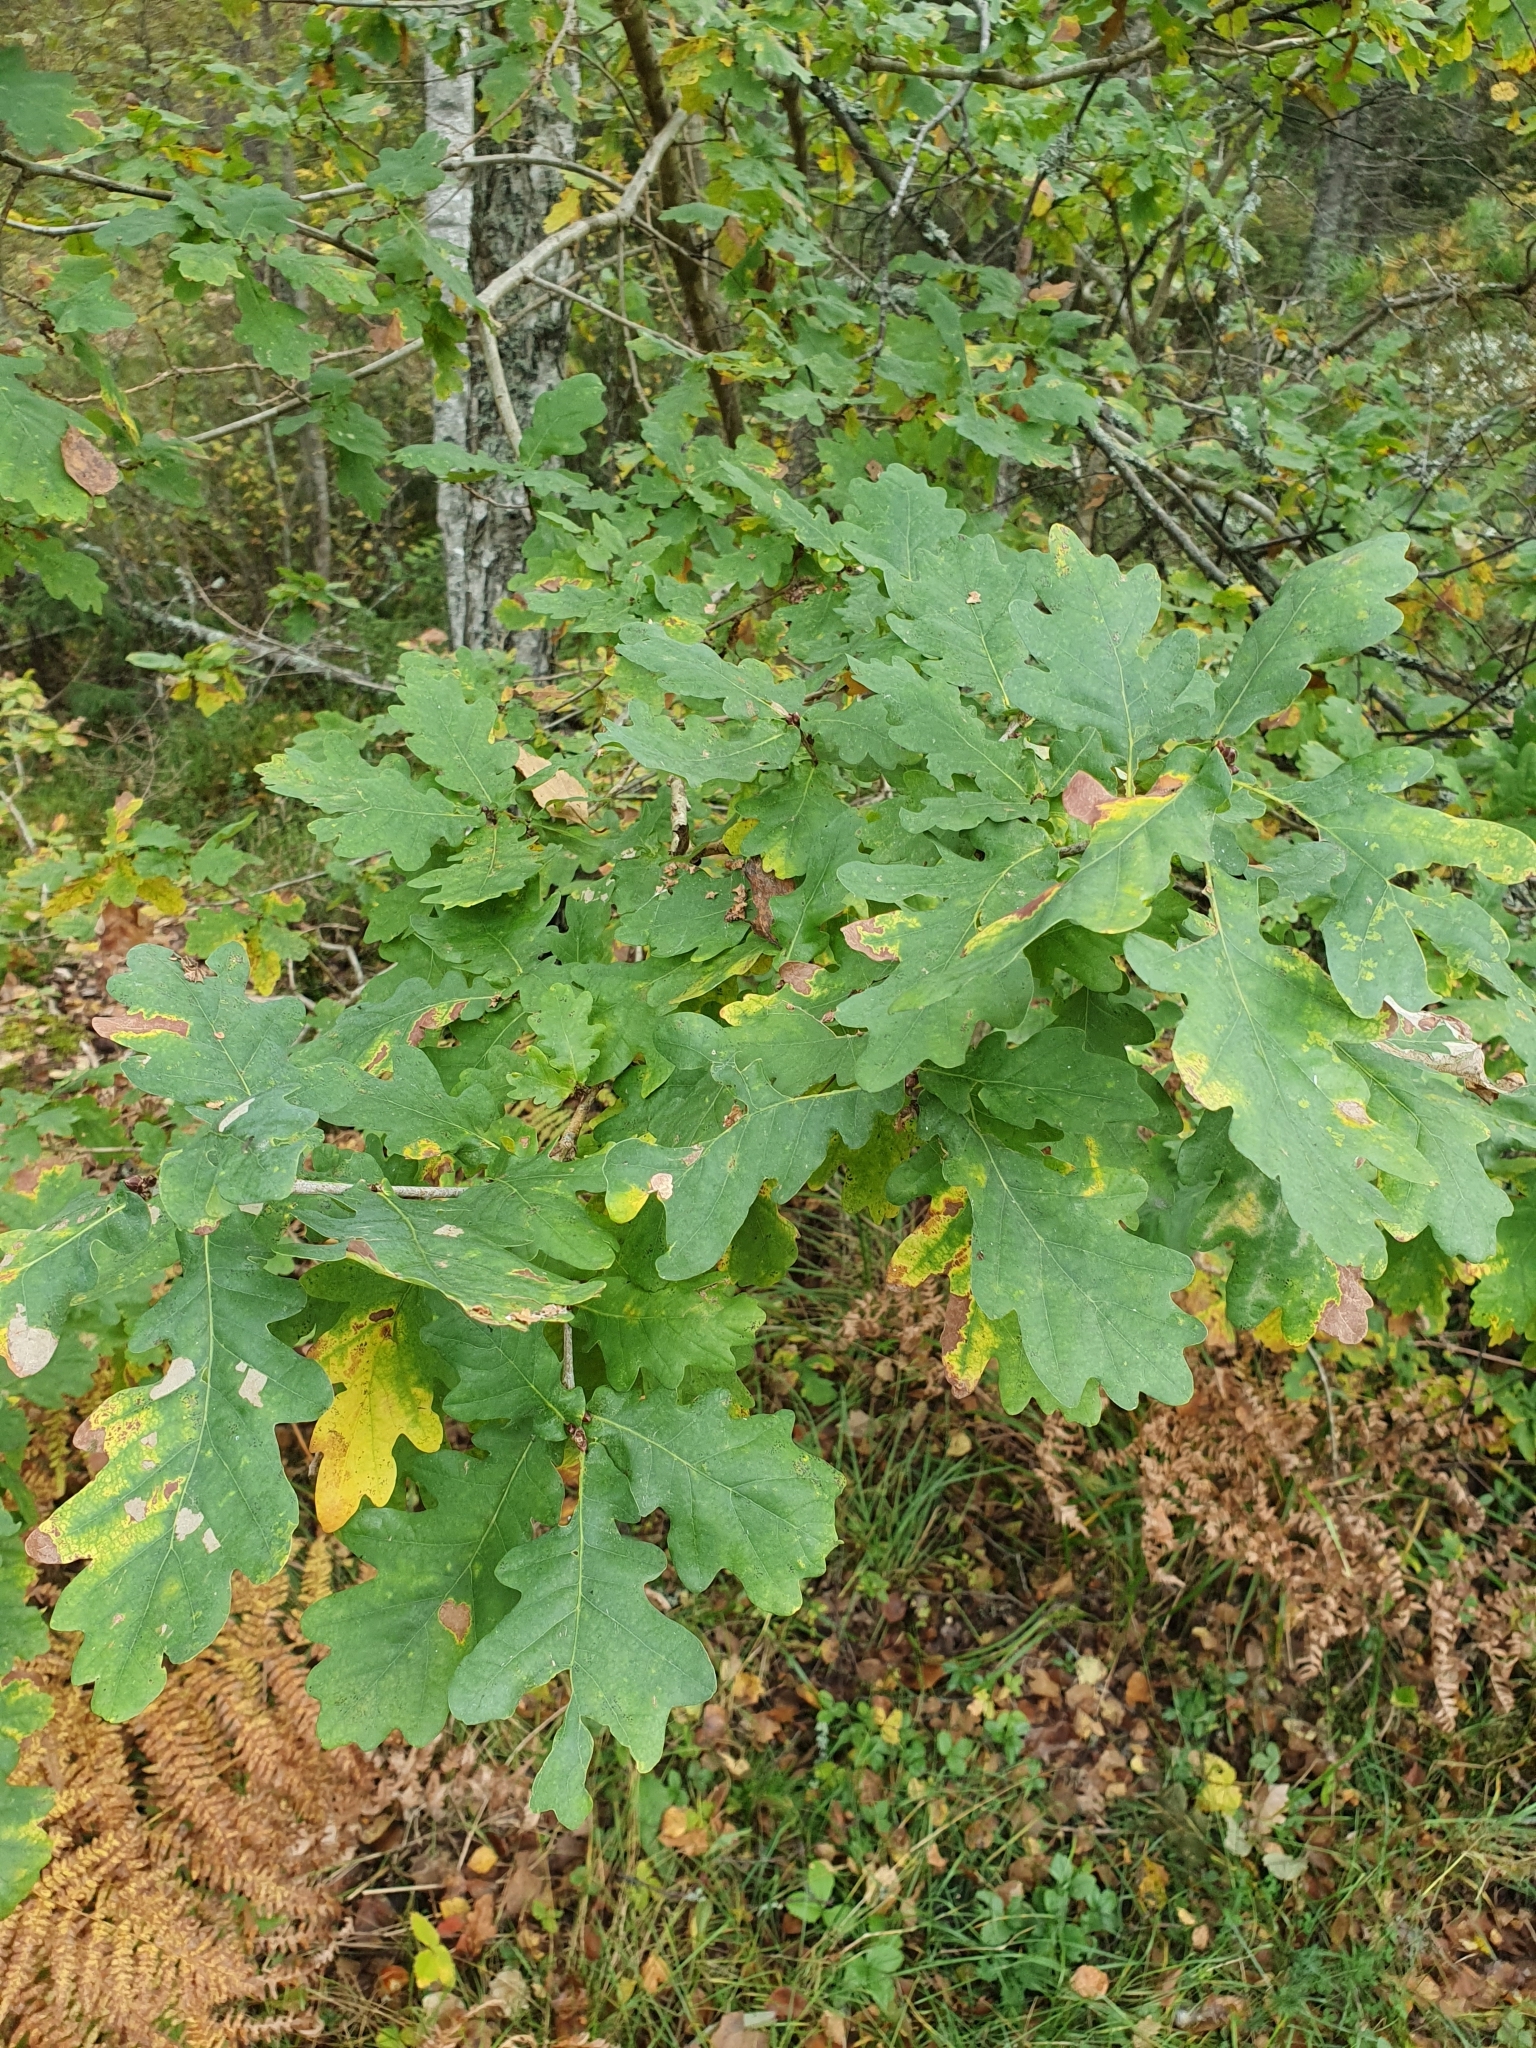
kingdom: Plantae
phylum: Tracheophyta
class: Magnoliopsida
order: Fagales
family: Fagaceae
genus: Quercus
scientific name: Quercus robur
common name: Pedunculate oak
